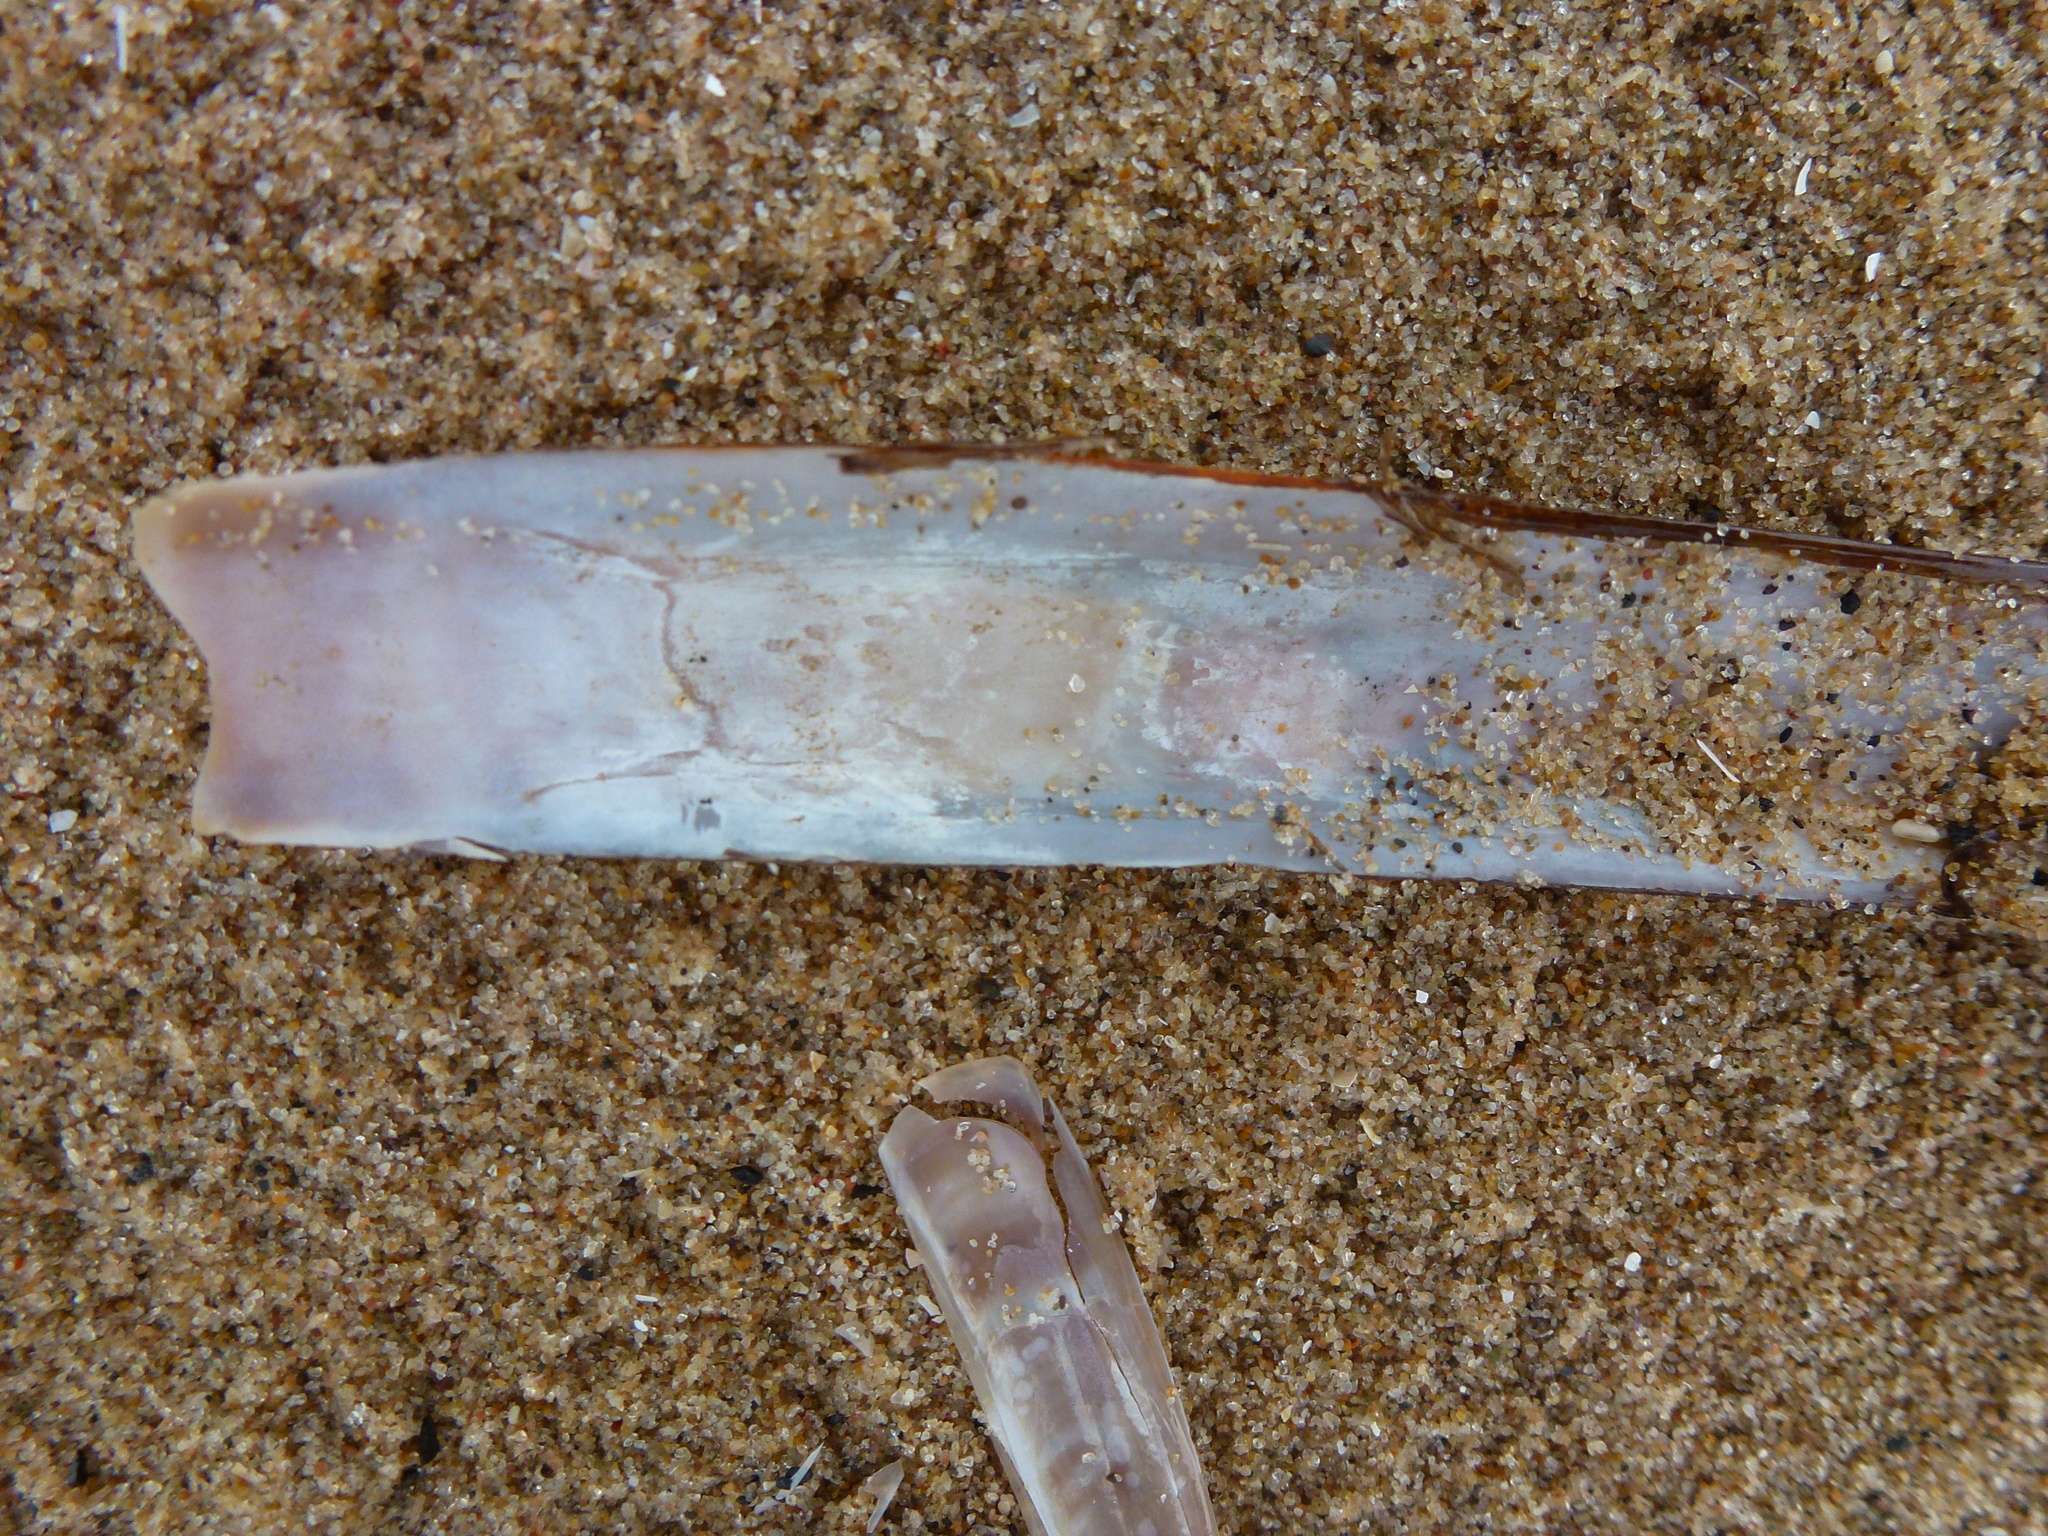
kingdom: Animalia
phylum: Mollusca
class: Bivalvia
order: Adapedonta
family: Pharidae
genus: Ensis
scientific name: Ensis leei
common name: American jack knife clam
